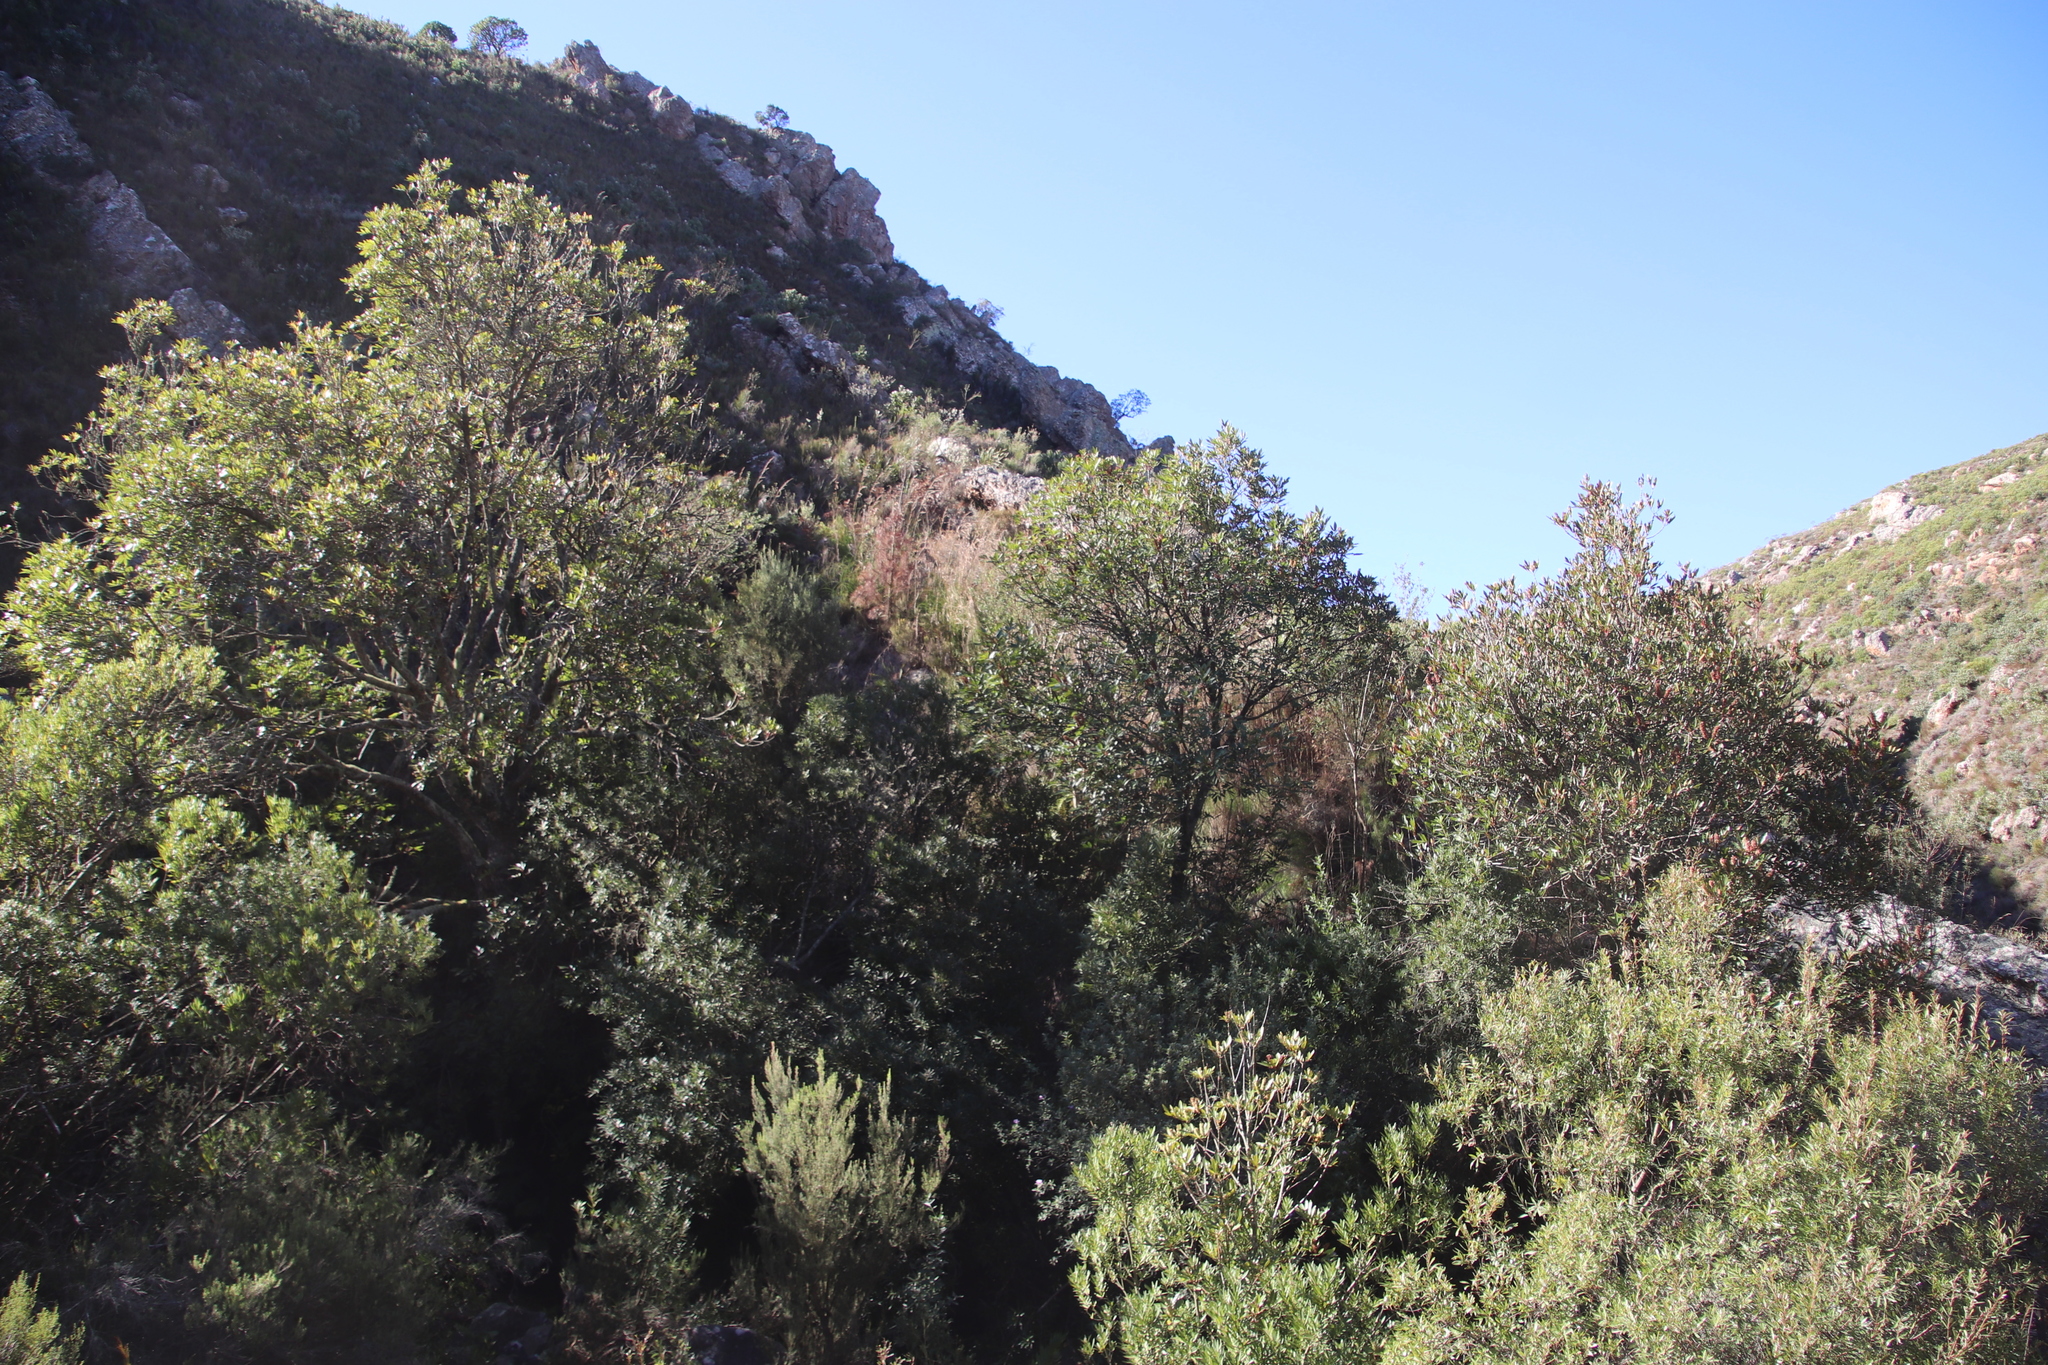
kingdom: Plantae
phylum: Tracheophyta
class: Magnoliopsida
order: Oxalidales
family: Cunoniaceae
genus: Cunonia
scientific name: Cunonia capensis
